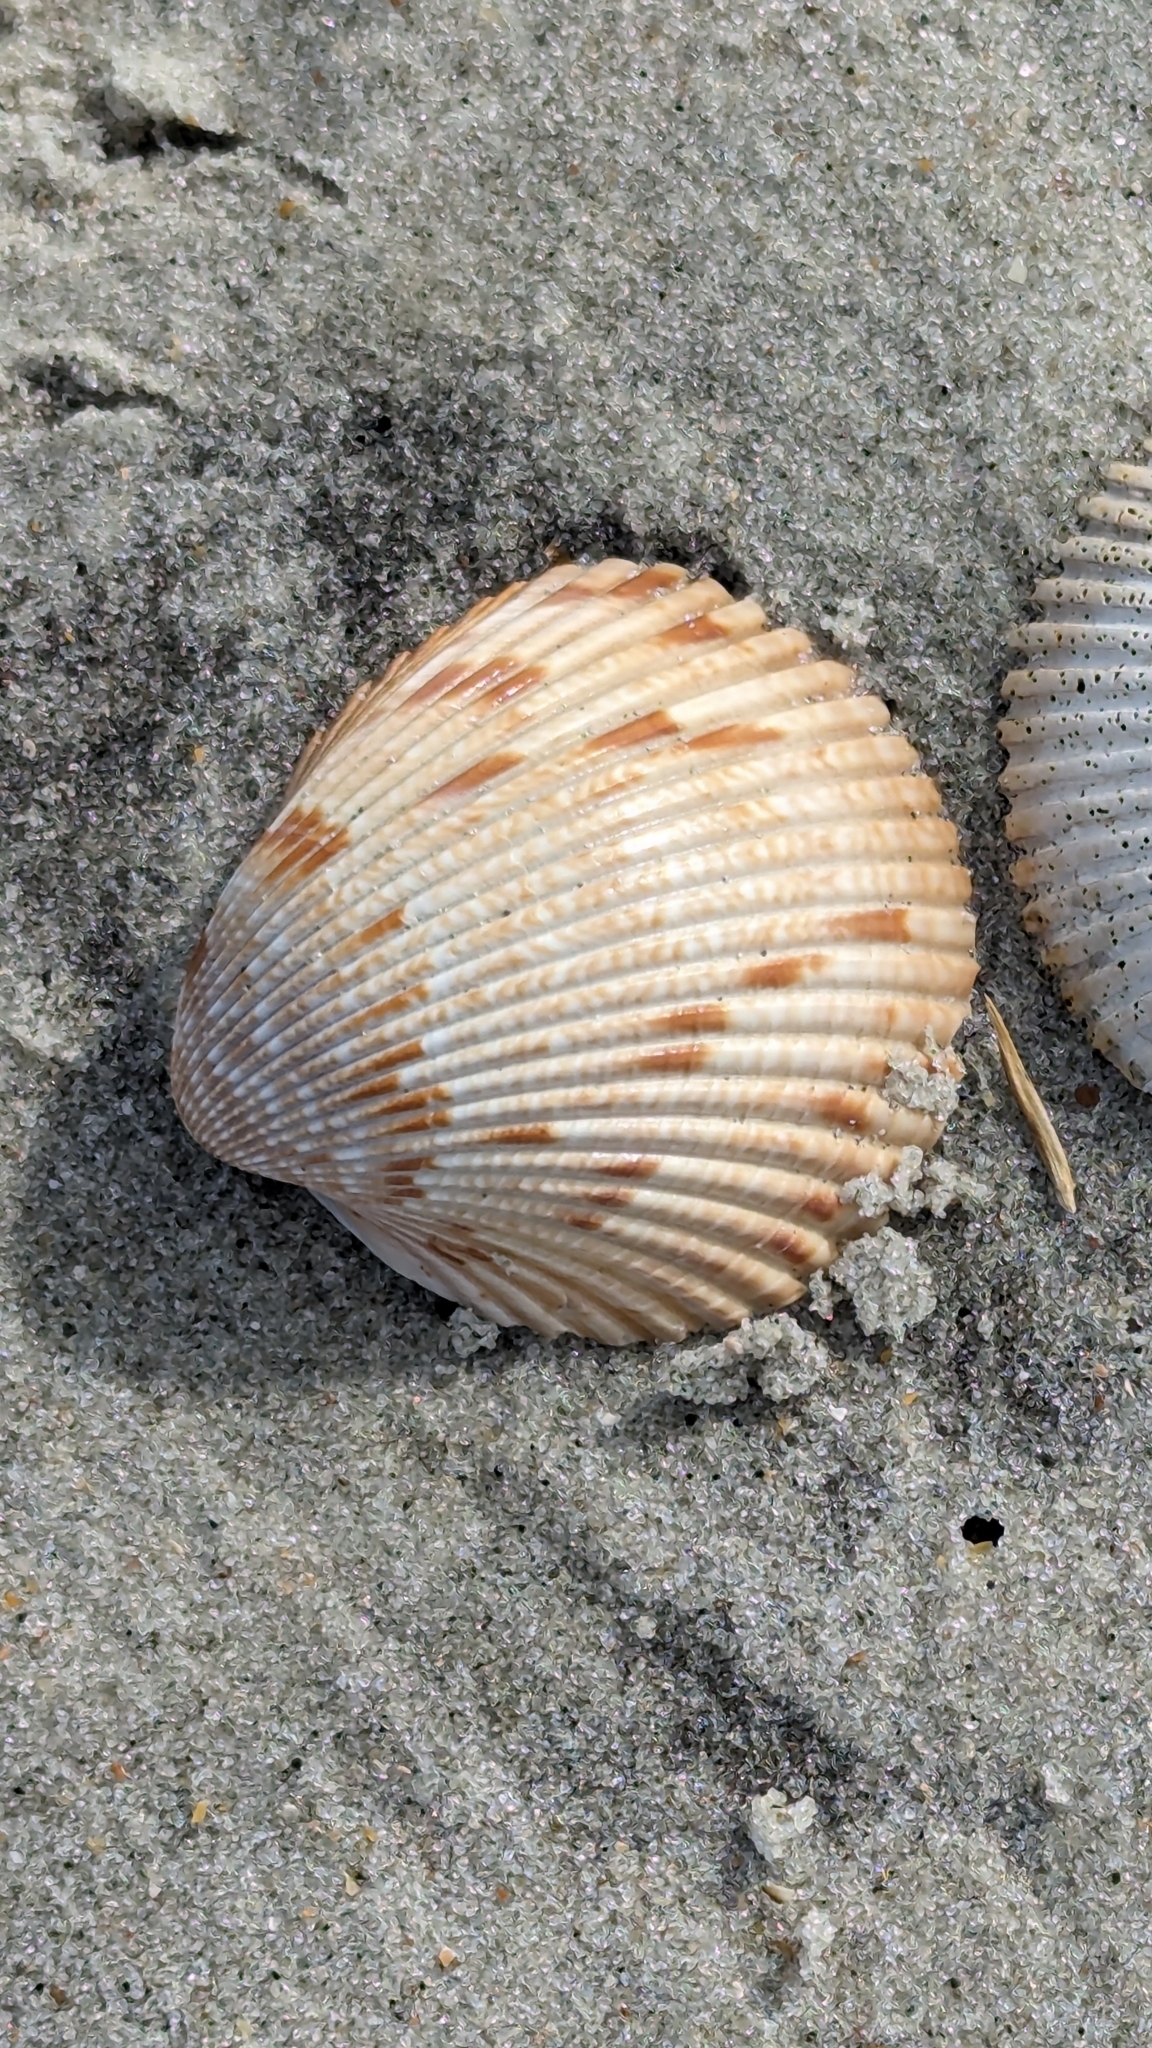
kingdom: Animalia
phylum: Mollusca
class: Bivalvia
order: Cardiida
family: Cardiidae
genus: Dinocardium
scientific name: Dinocardium robustum
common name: Atlantic giant cockle
